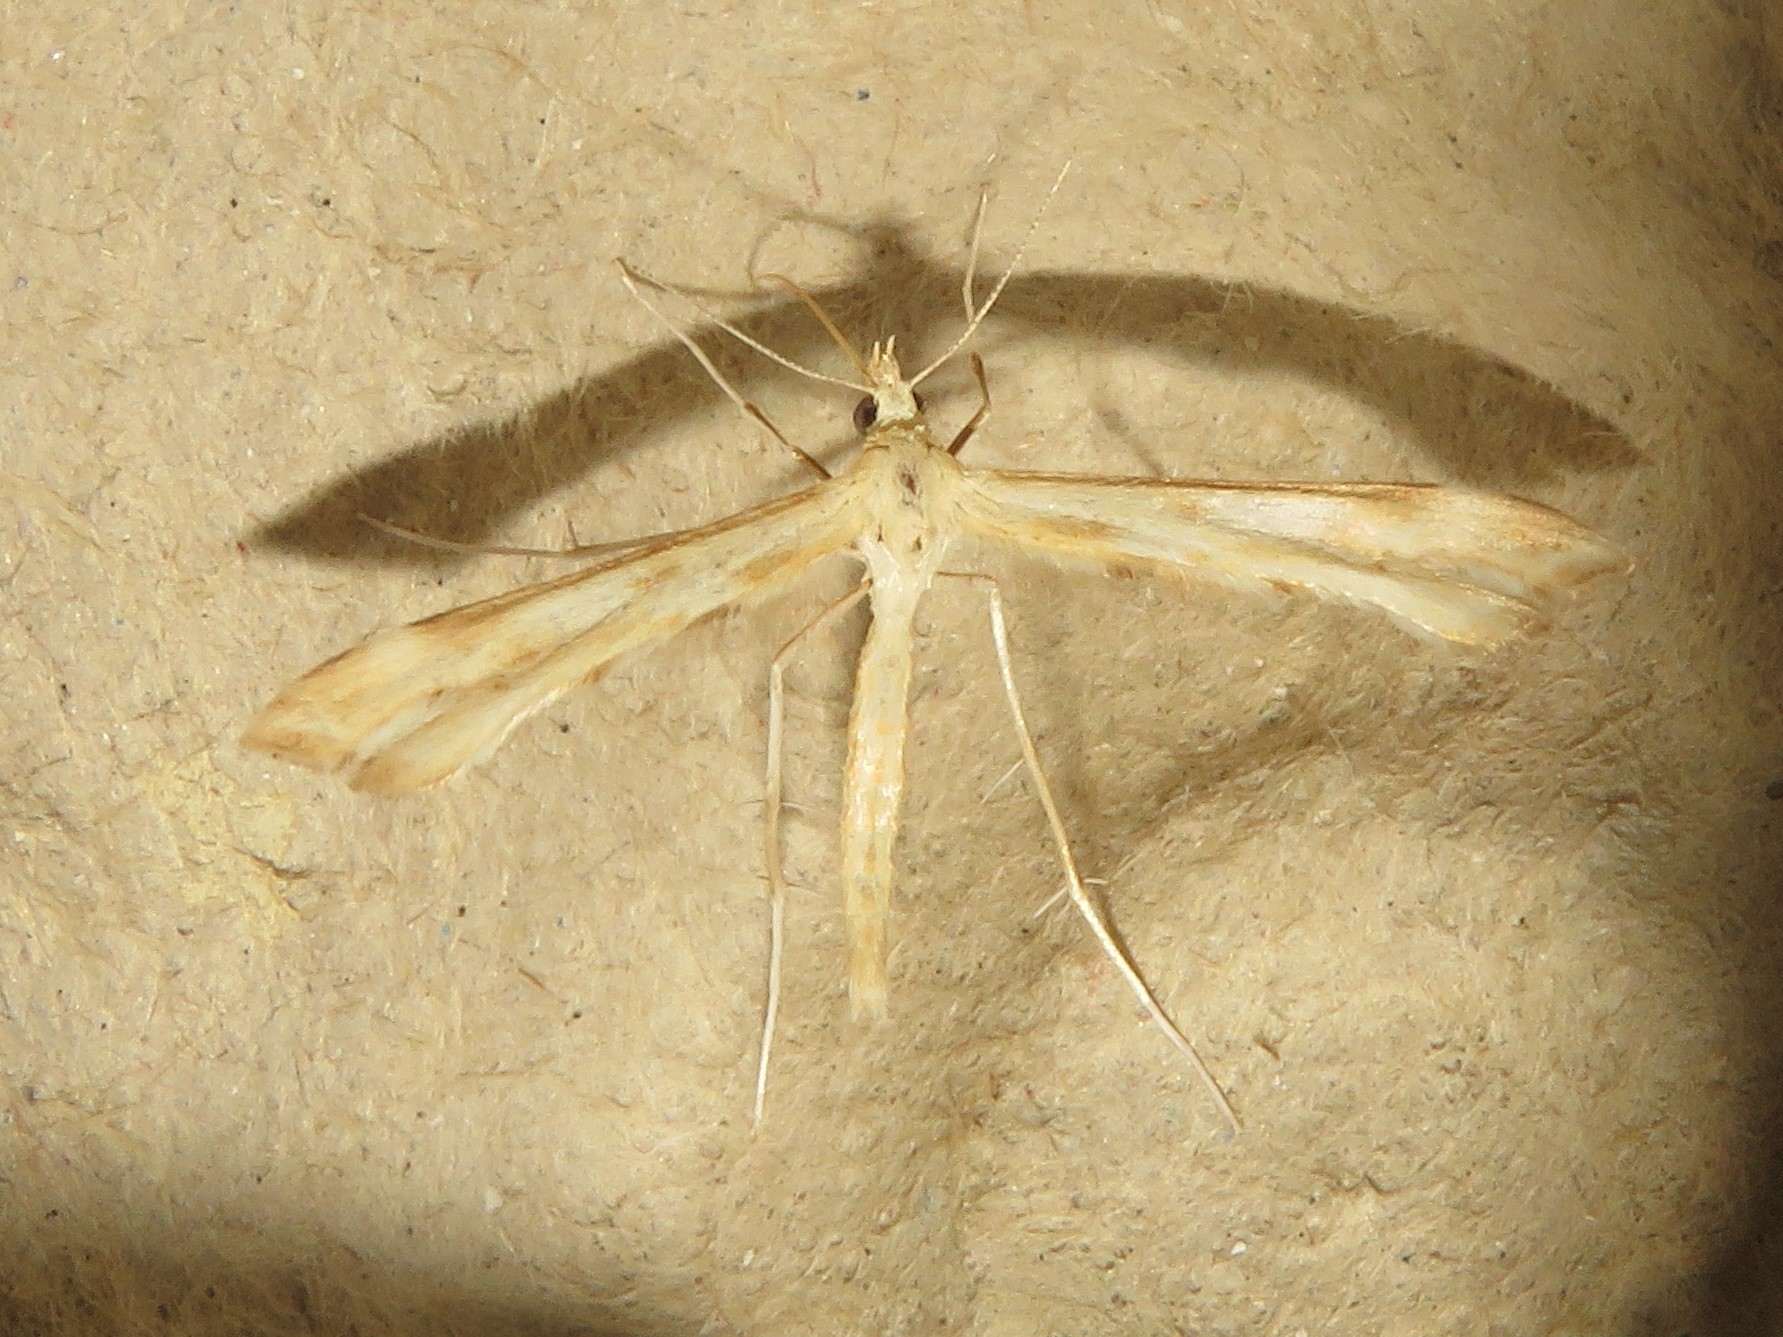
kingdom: Animalia
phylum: Arthropoda
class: Insecta
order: Lepidoptera
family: Pterophoridae
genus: Gillmeria
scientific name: Gillmeria pallidactyla
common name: Yarrow plume
